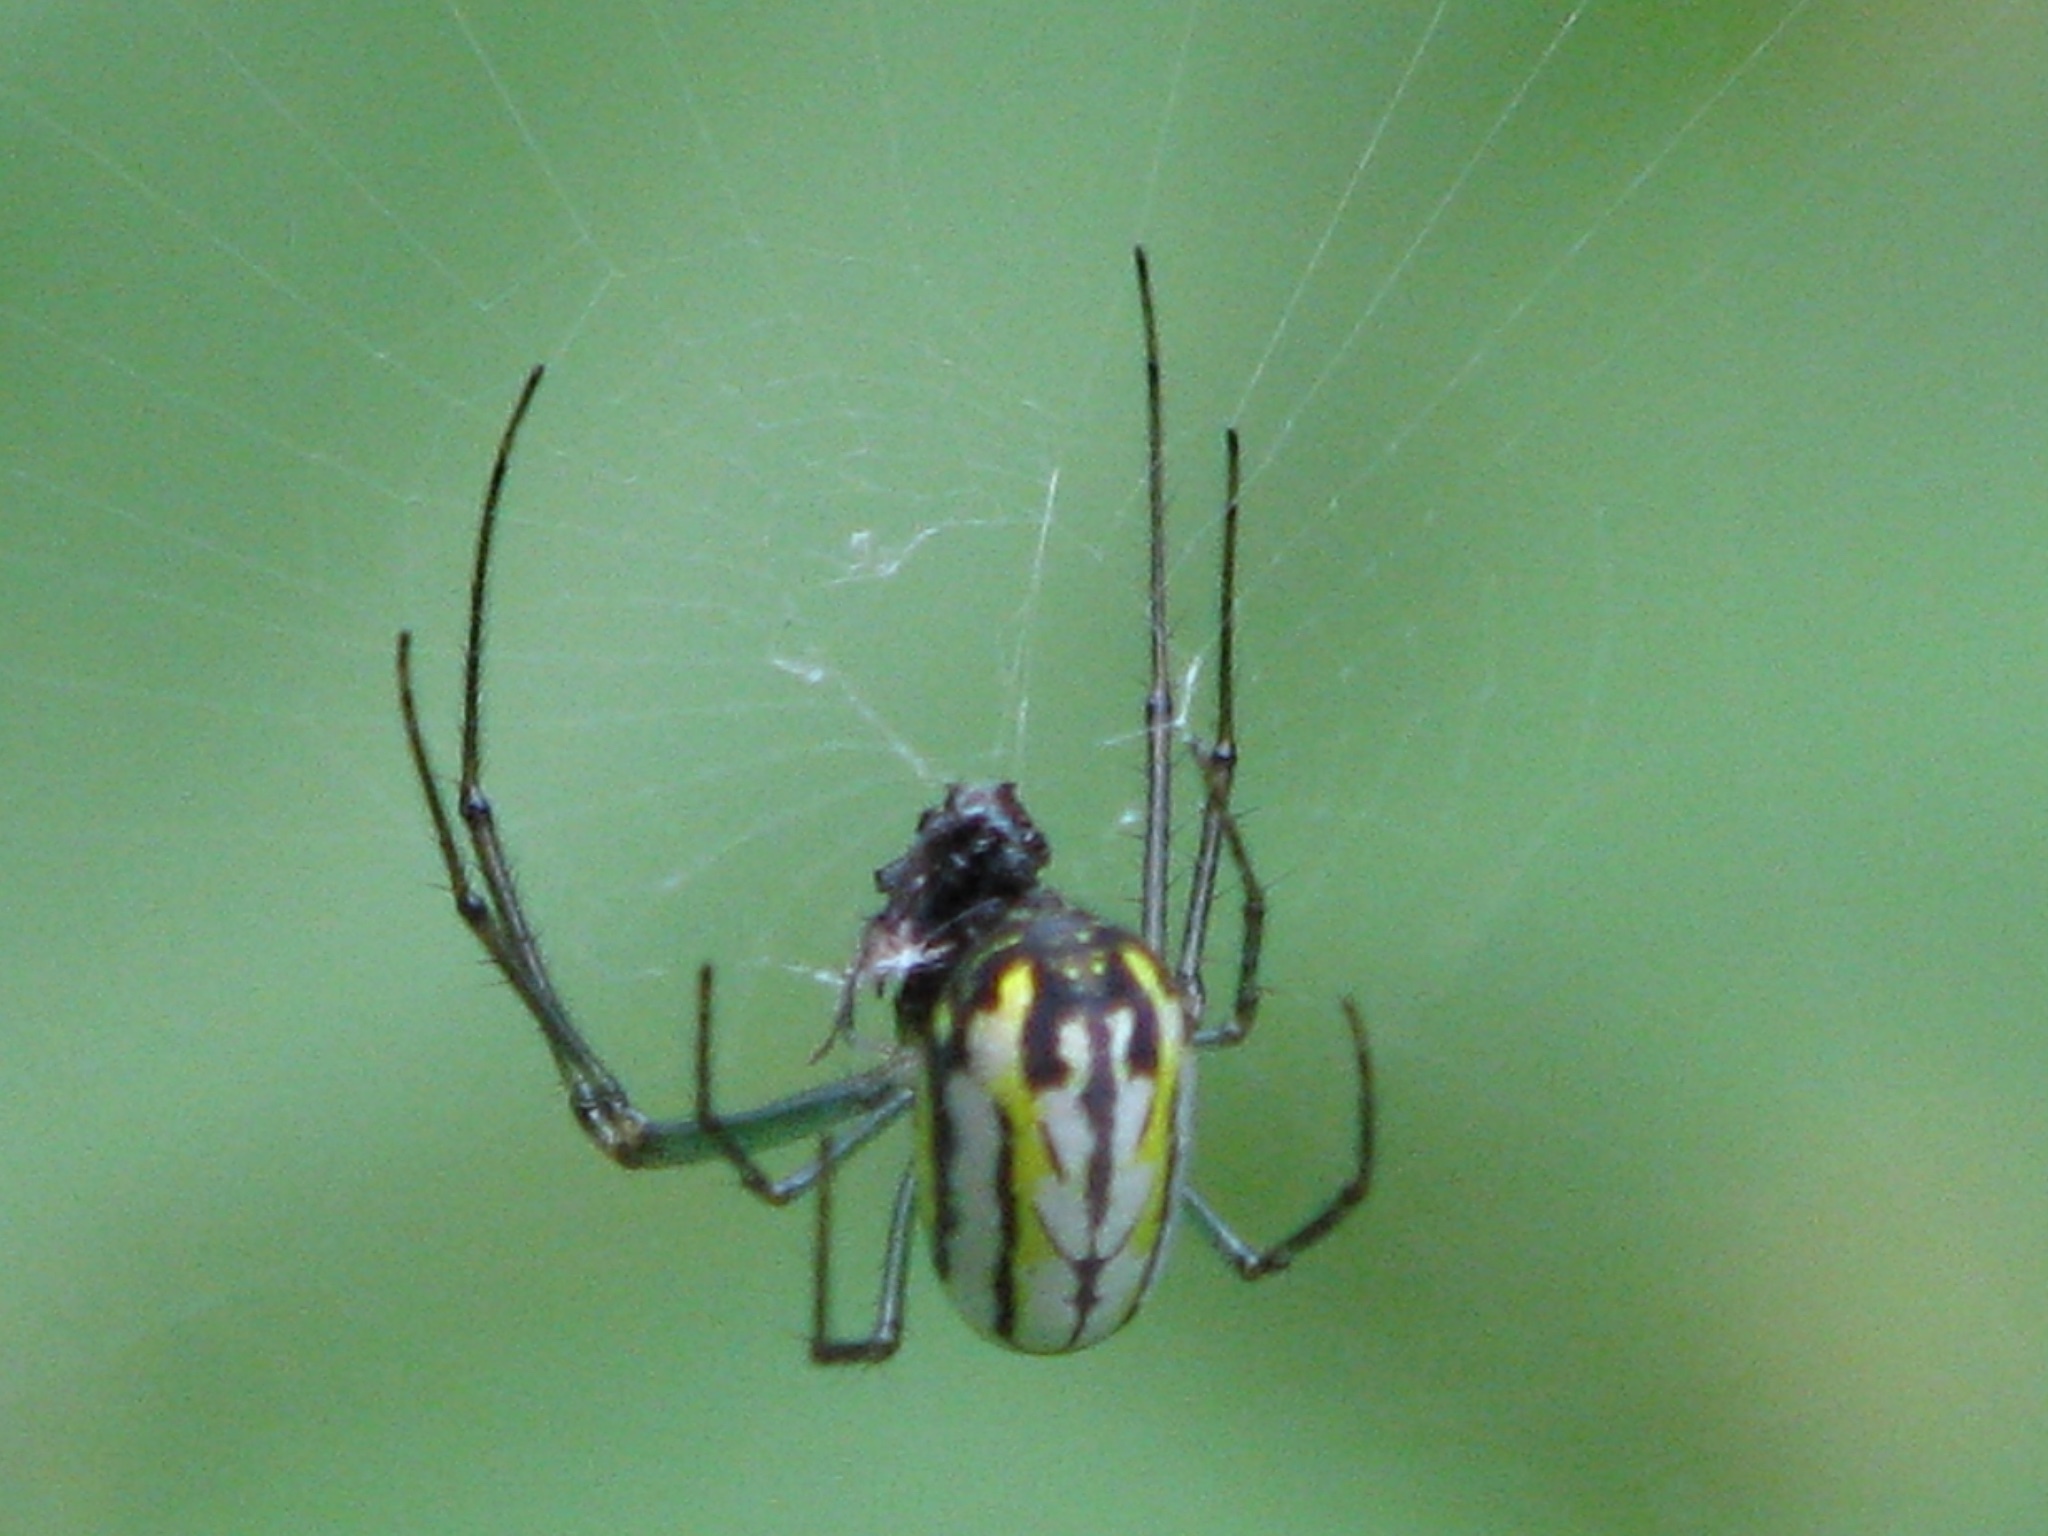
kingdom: Animalia
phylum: Arthropoda
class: Arachnida
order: Araneae
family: Tetragnathidae
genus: Leucauge
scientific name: Leucauge venusta
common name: Longjawed orb weavers
